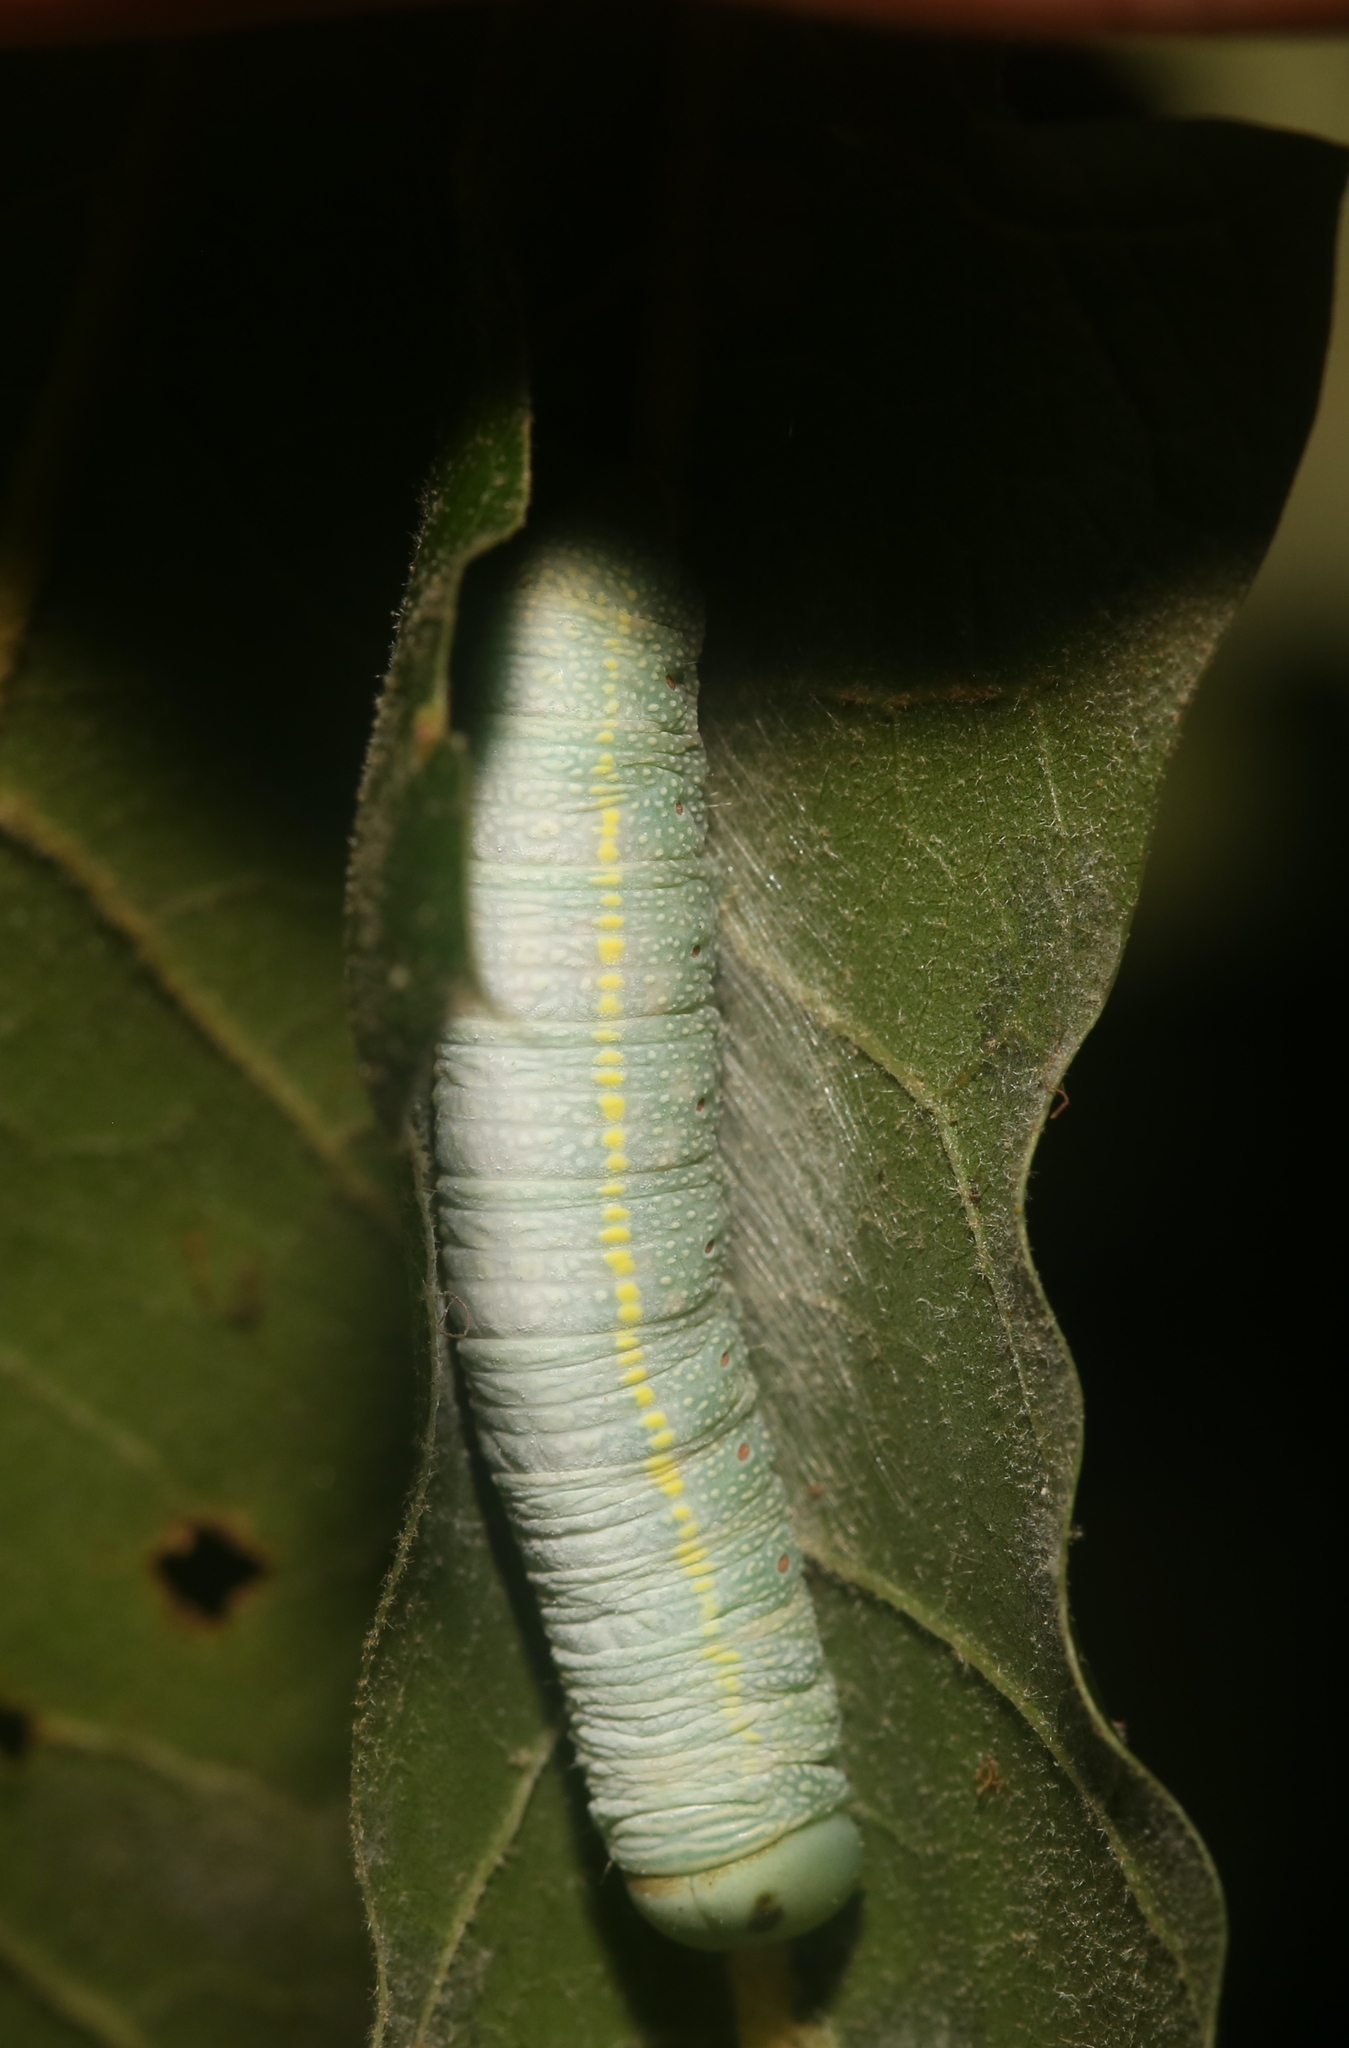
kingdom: Animalia
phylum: Arthropoda
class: Insecta
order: Lepidoptera
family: Notodontidae
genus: Nadata
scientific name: Nadata gibbosa
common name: White-dotted prominent
